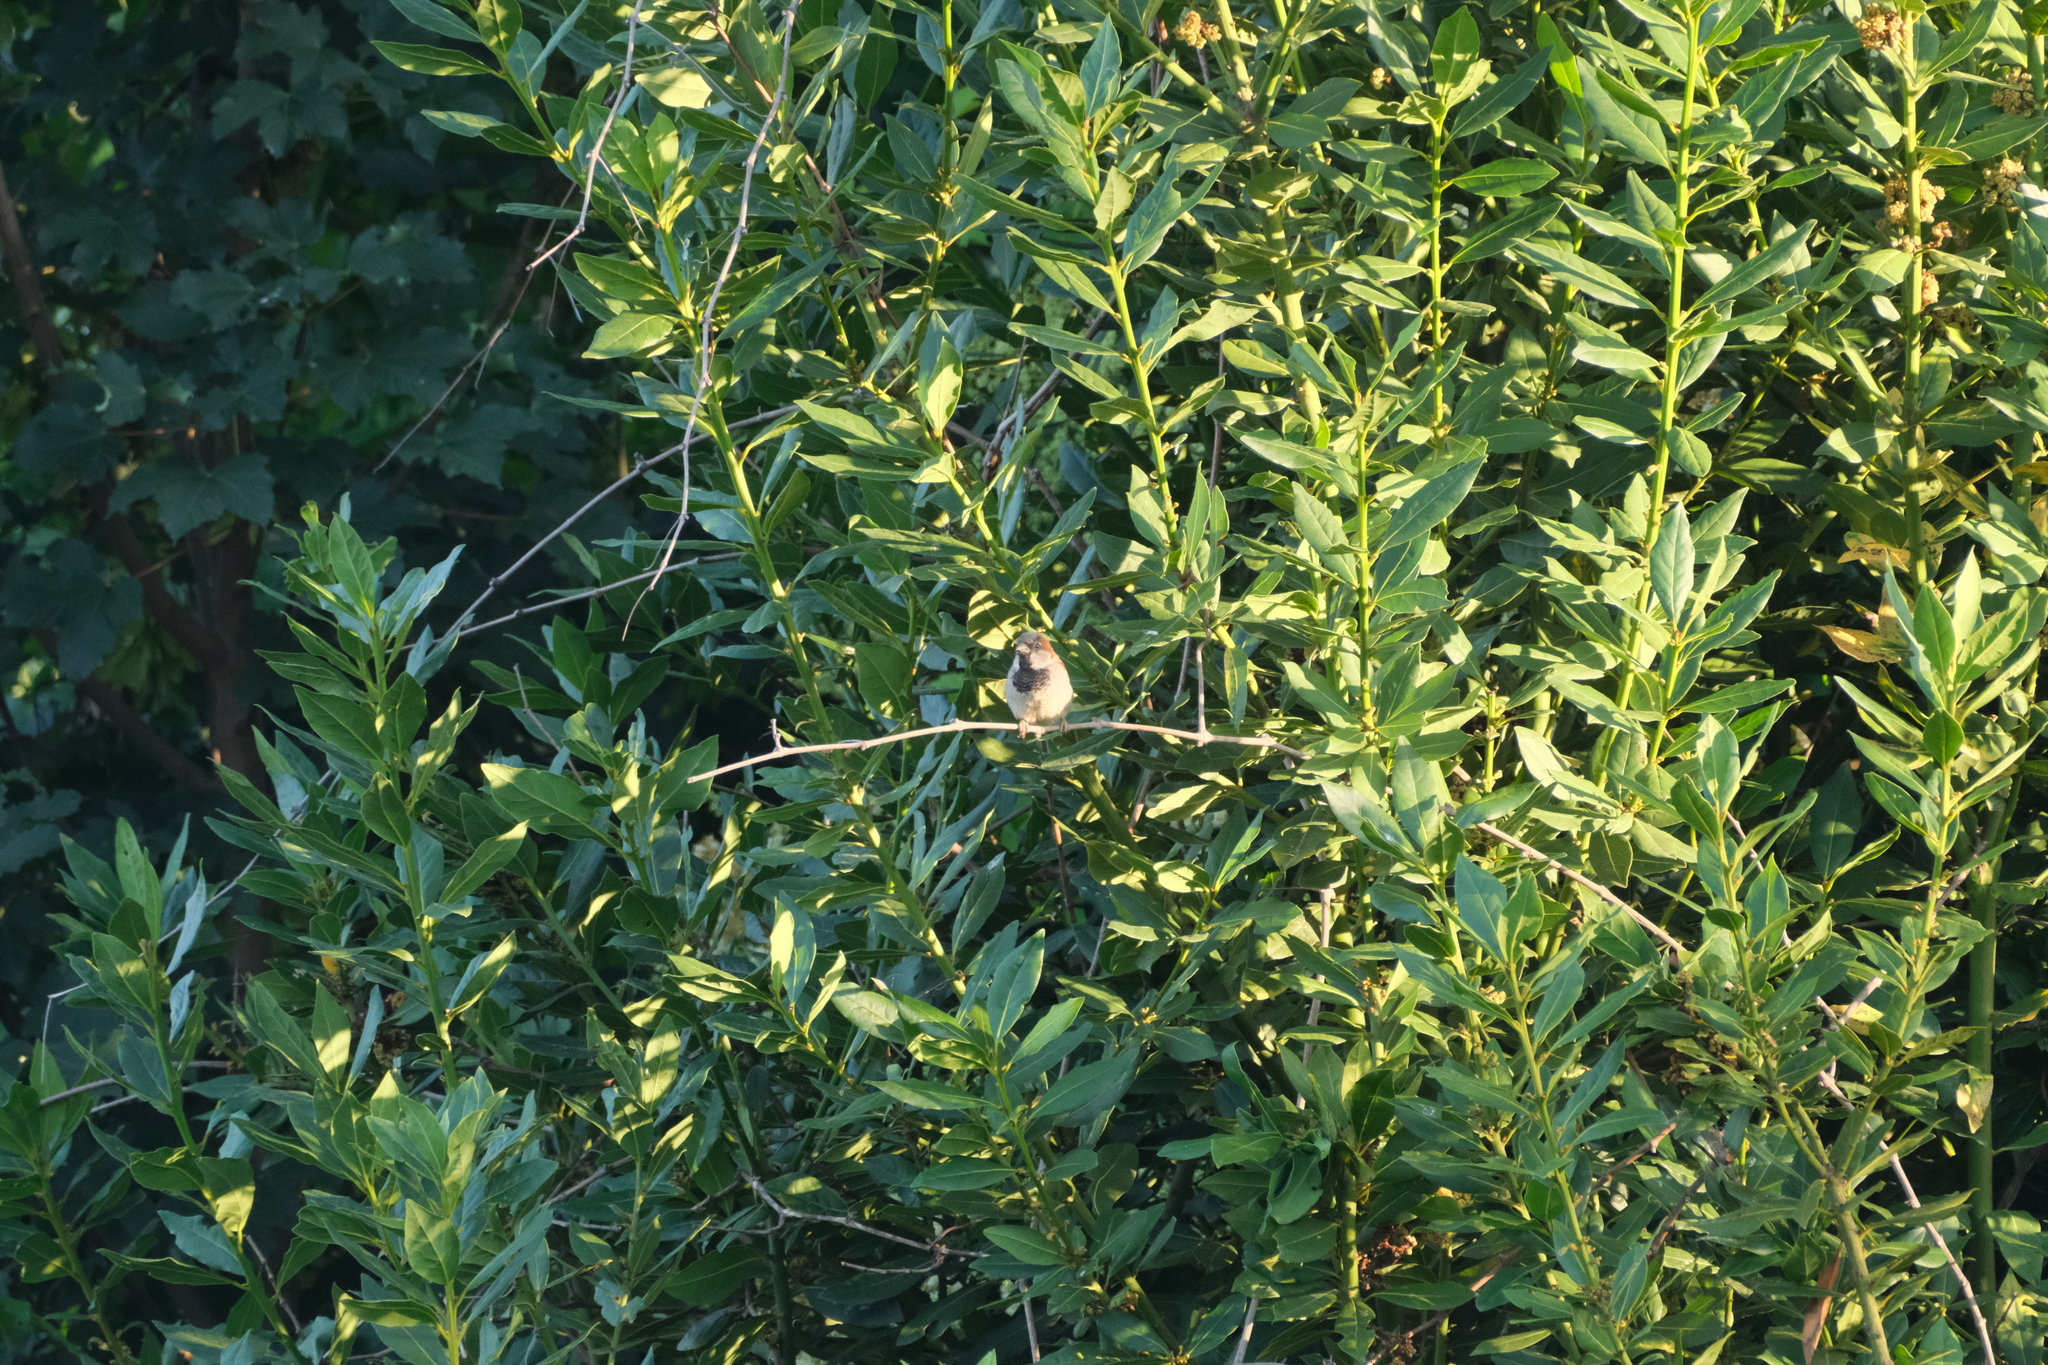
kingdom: Animalia
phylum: Chordata
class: Aves
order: Passeriformes
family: Passeridae
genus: Passer
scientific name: Passer domesticus
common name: House sparrow
